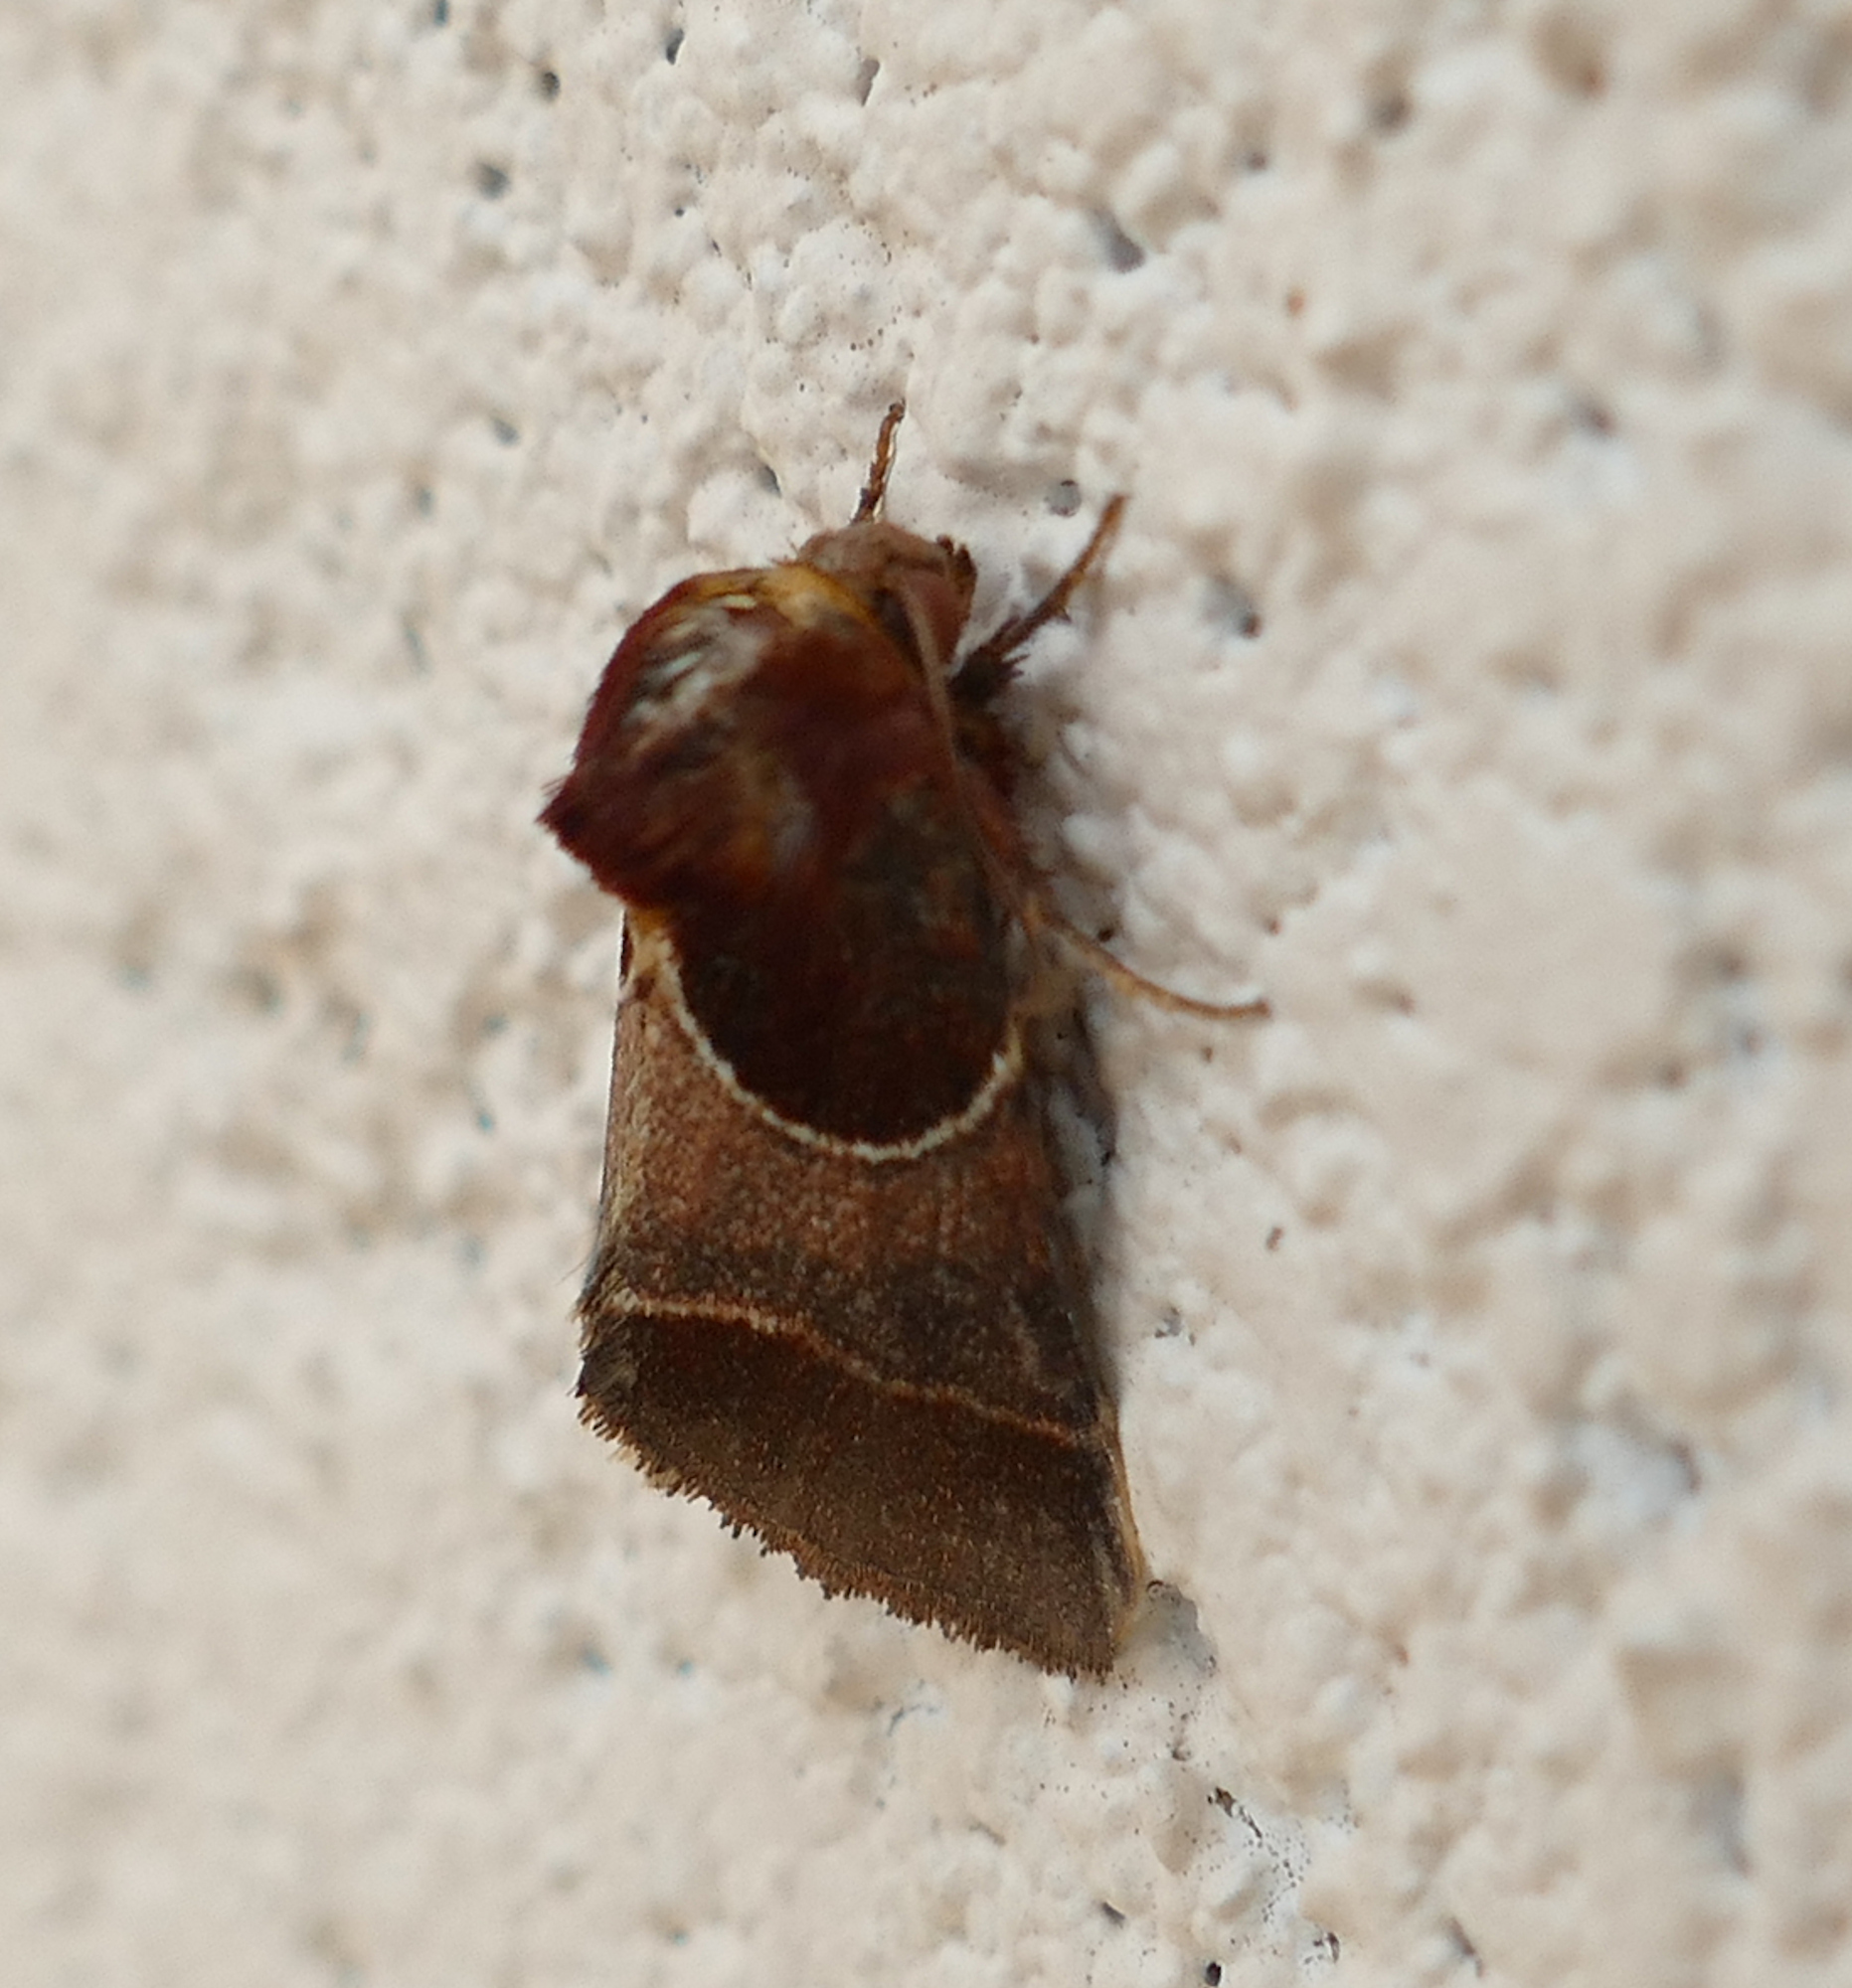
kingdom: Animalia
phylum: Arthropoda
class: Insecta
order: Lepidoptera
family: Noctuidae
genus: Schinia
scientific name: Schinia arcigera
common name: Arcigera flower moth
